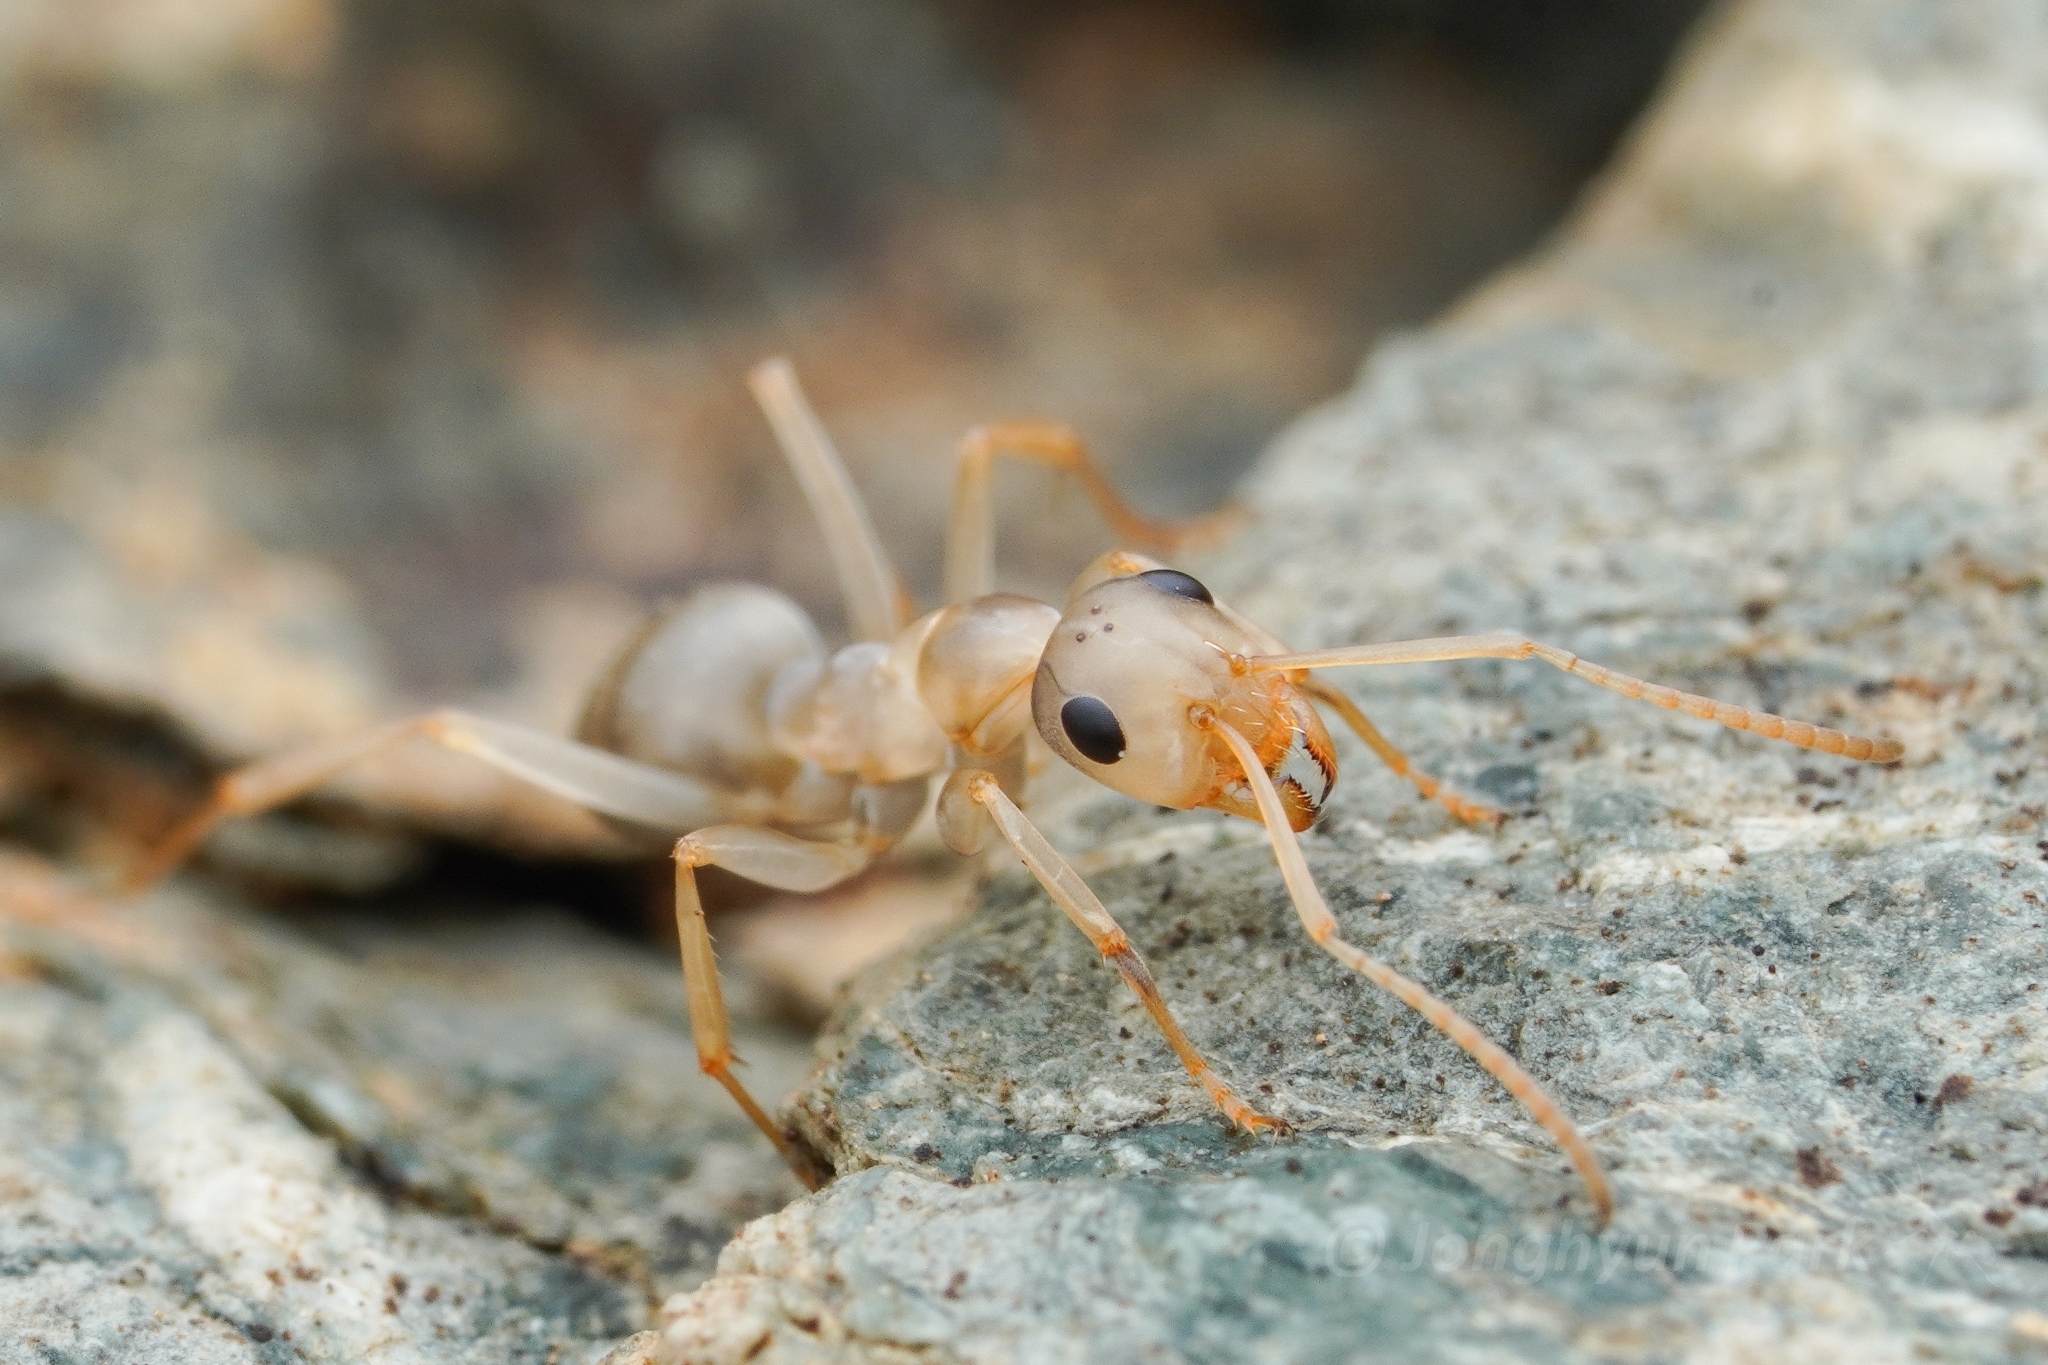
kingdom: Animalia
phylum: Arthropoda
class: Insecta
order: Hymenoptera
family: Formicidae
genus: Formica
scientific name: Formica subsericea
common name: Silky field ant
